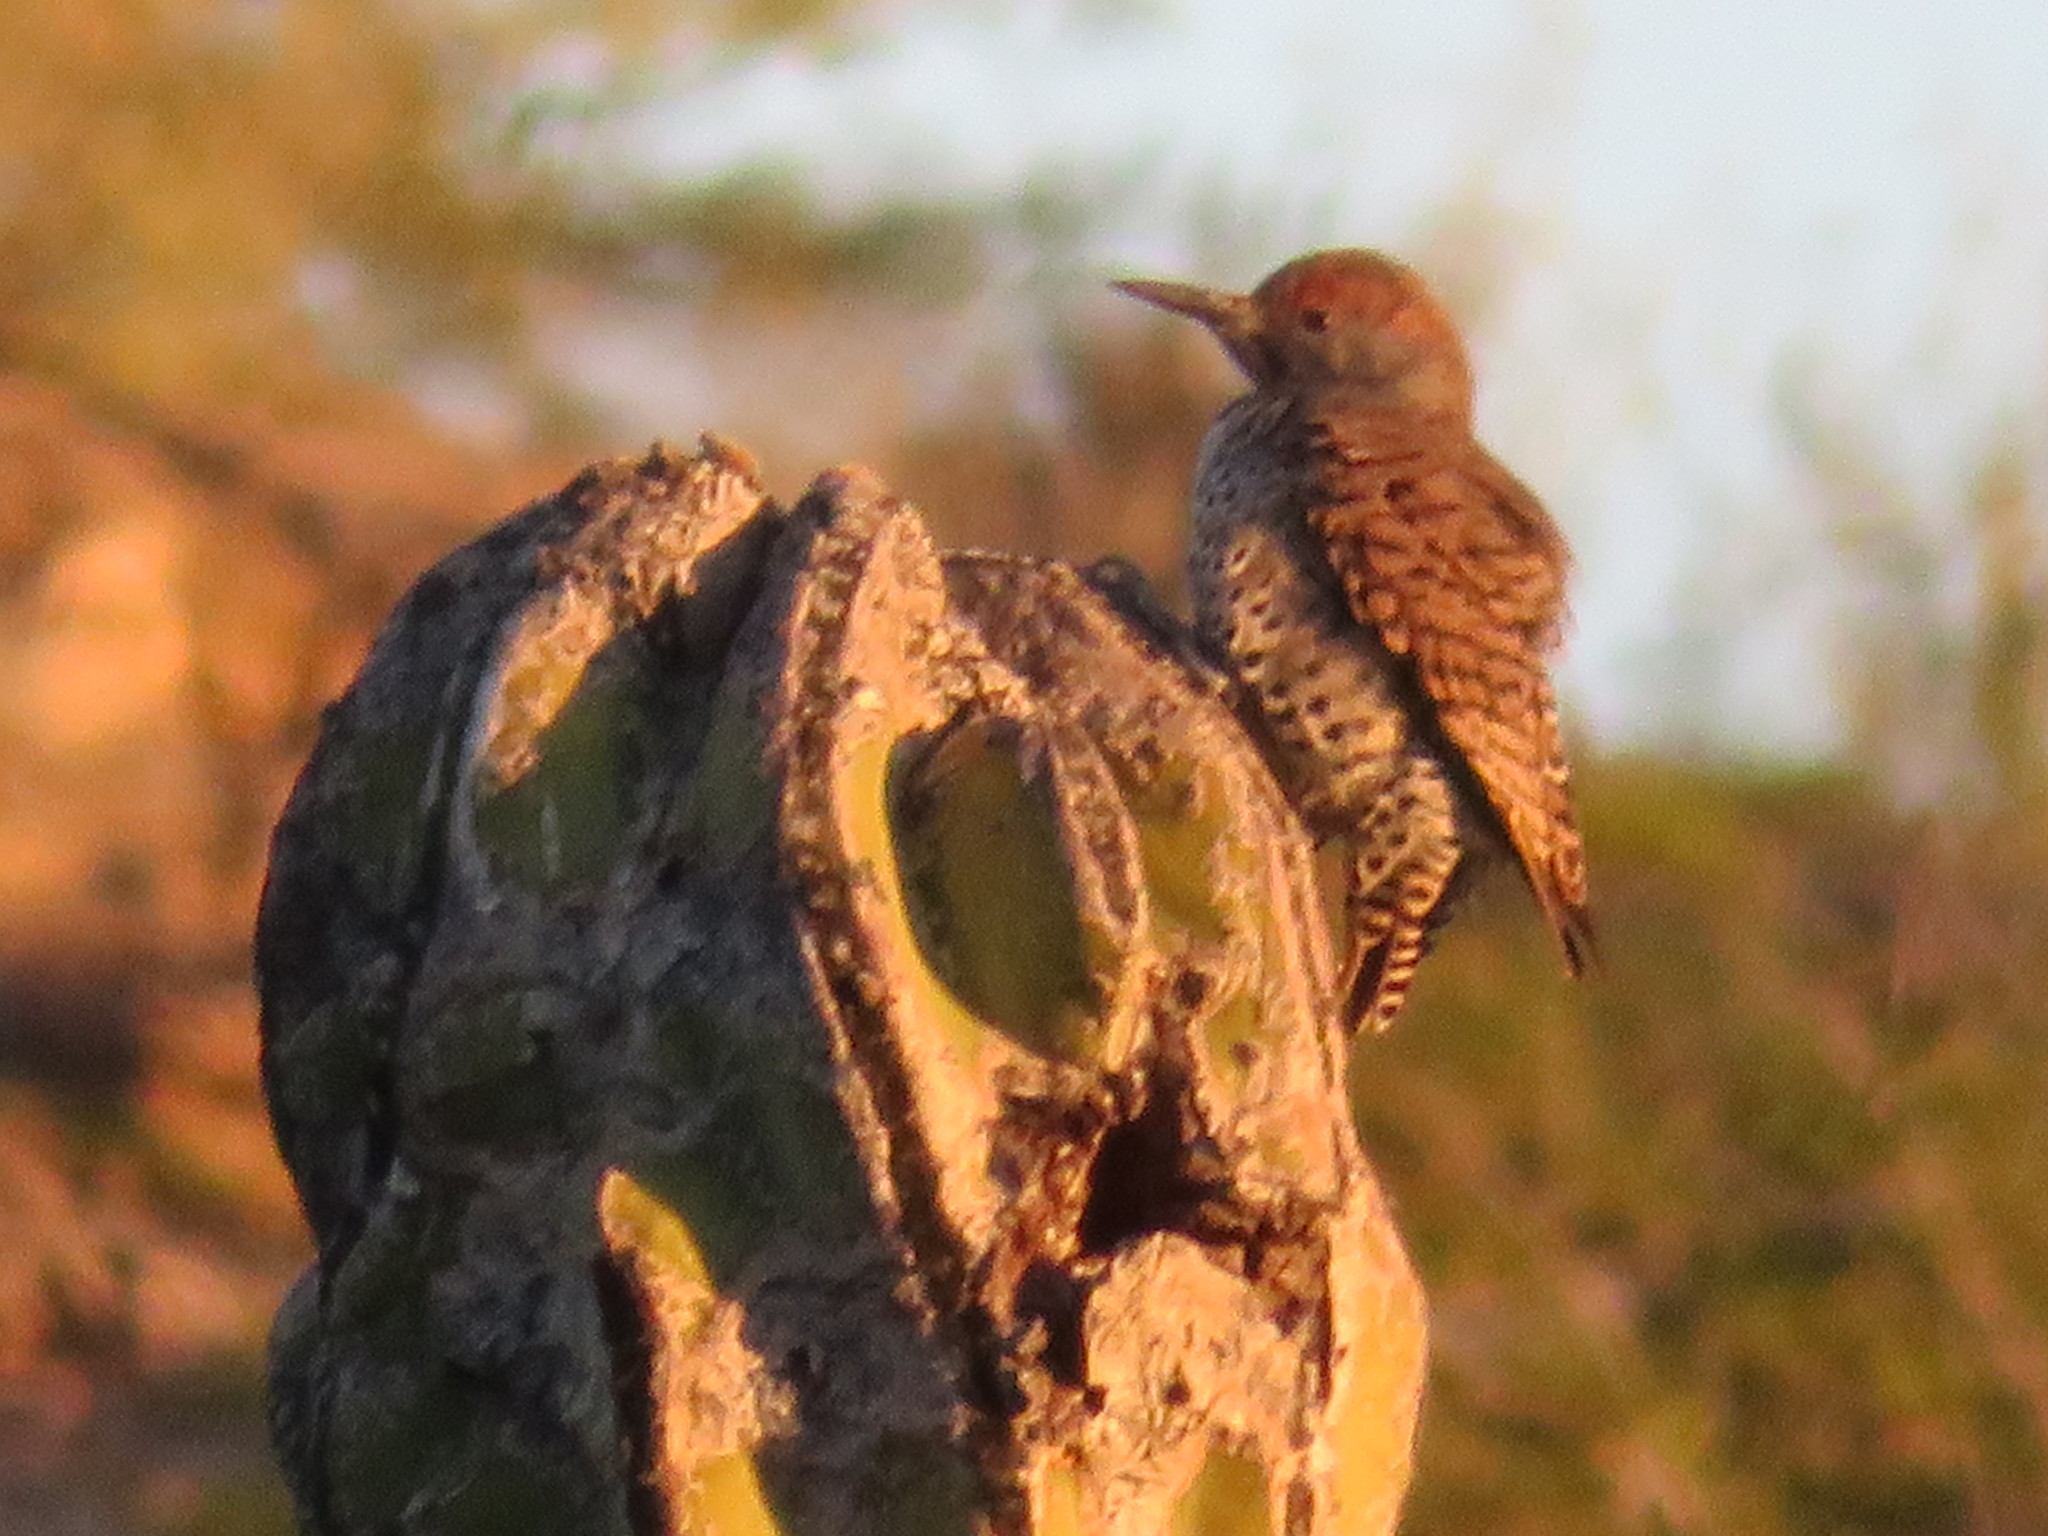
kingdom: Animalia
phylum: Chordata
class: Aves
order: Piciformes
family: Picidae
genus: Colaptes
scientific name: Colaptes chrysoides
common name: Gilded flicker
